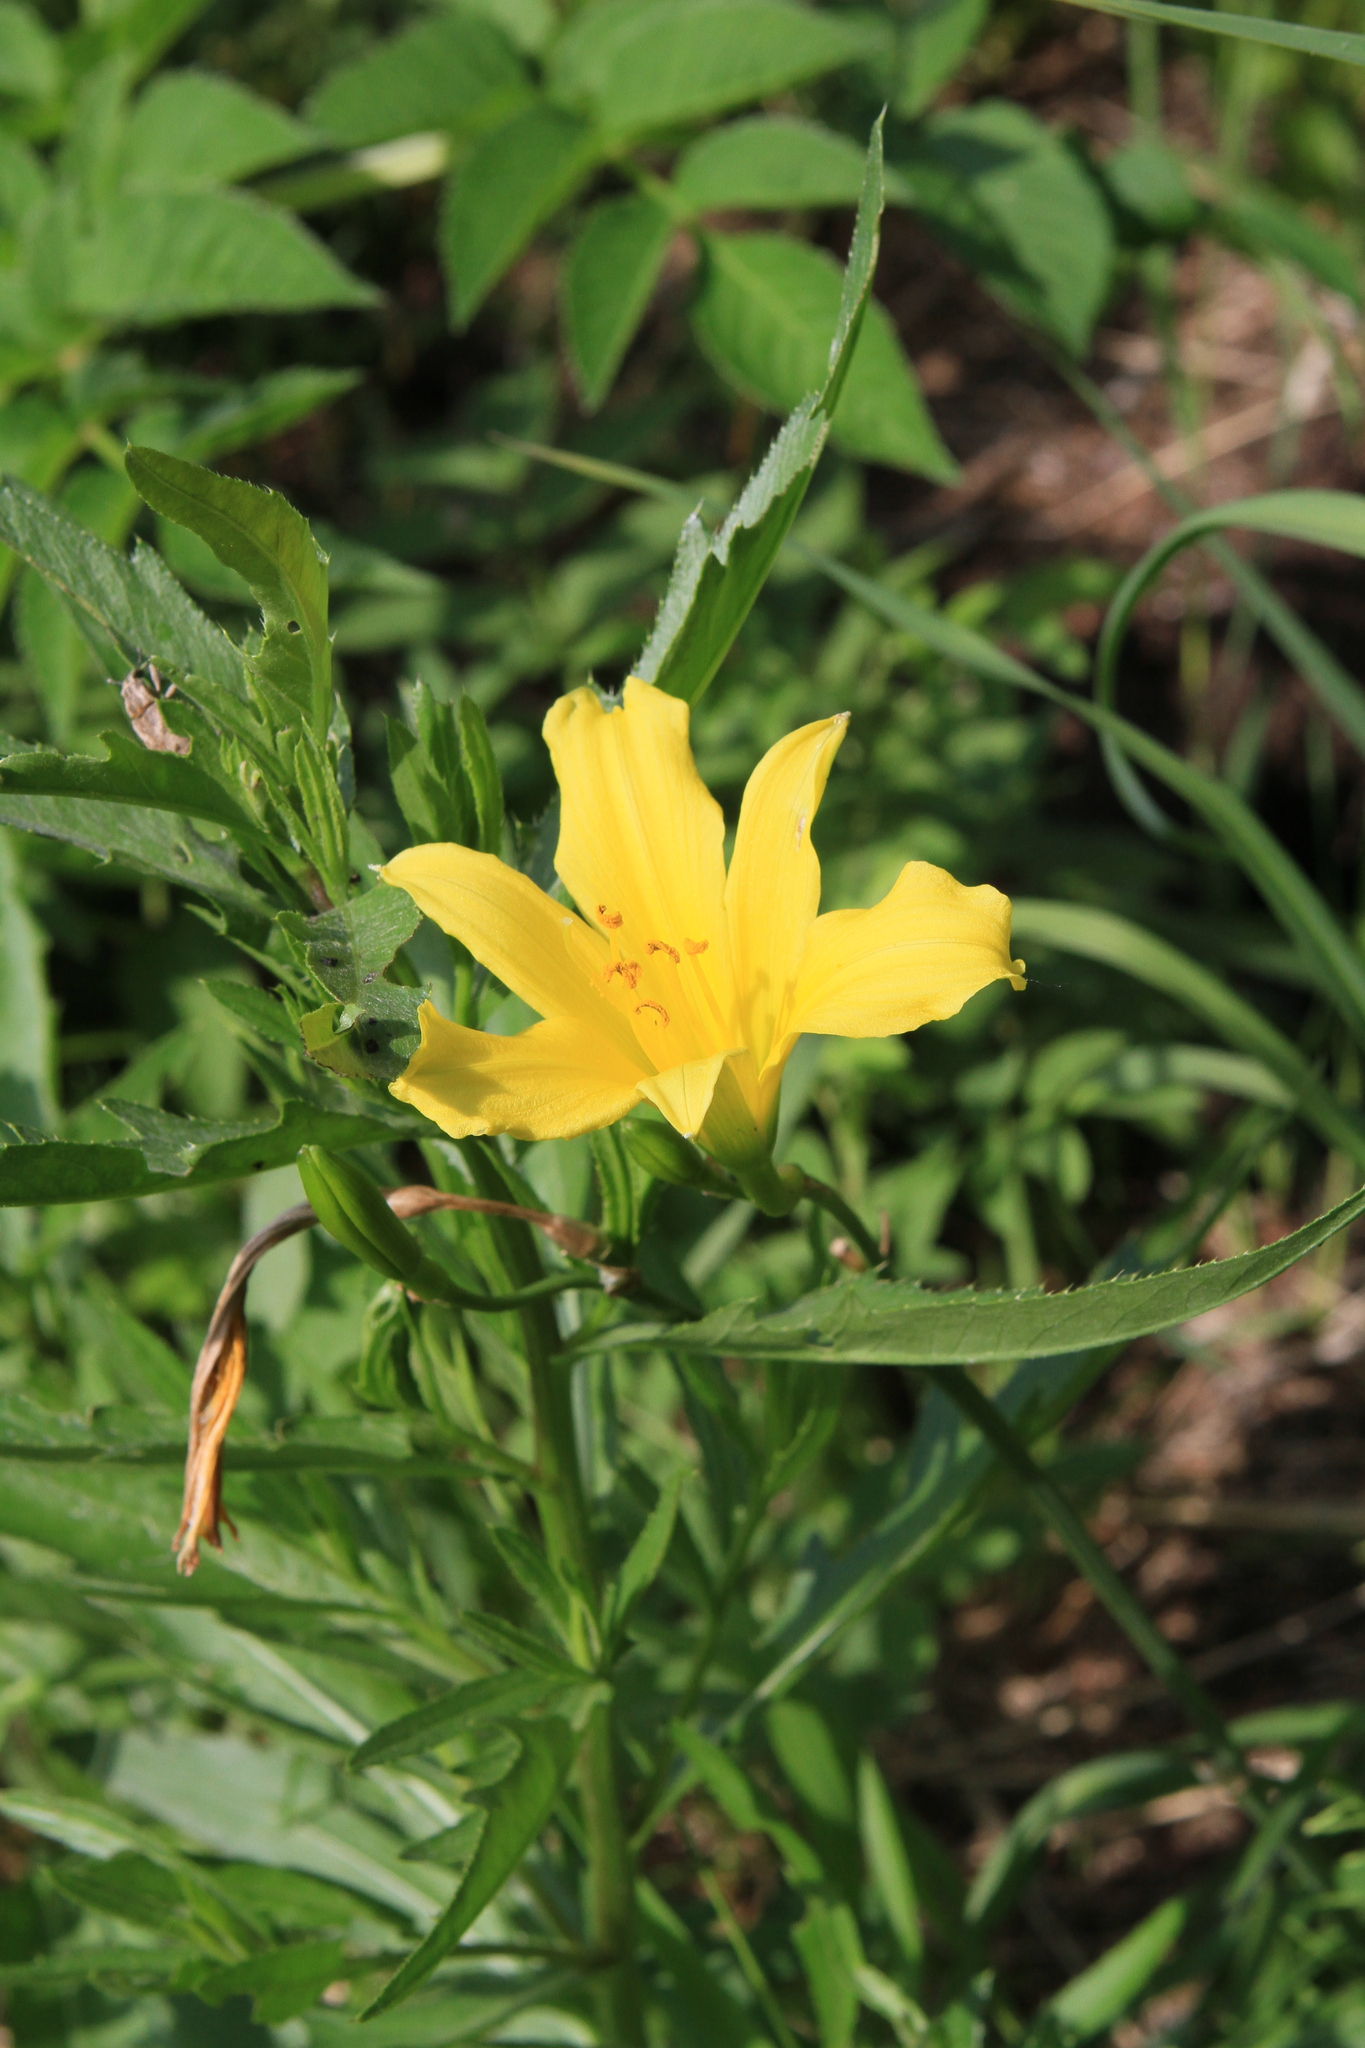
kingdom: Plantae
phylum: Tracheophyta
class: Liliopsida
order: Asparagales
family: Asphodelaceae
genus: Hemerocallis
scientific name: Hemerocallis minor
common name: Small daylily
